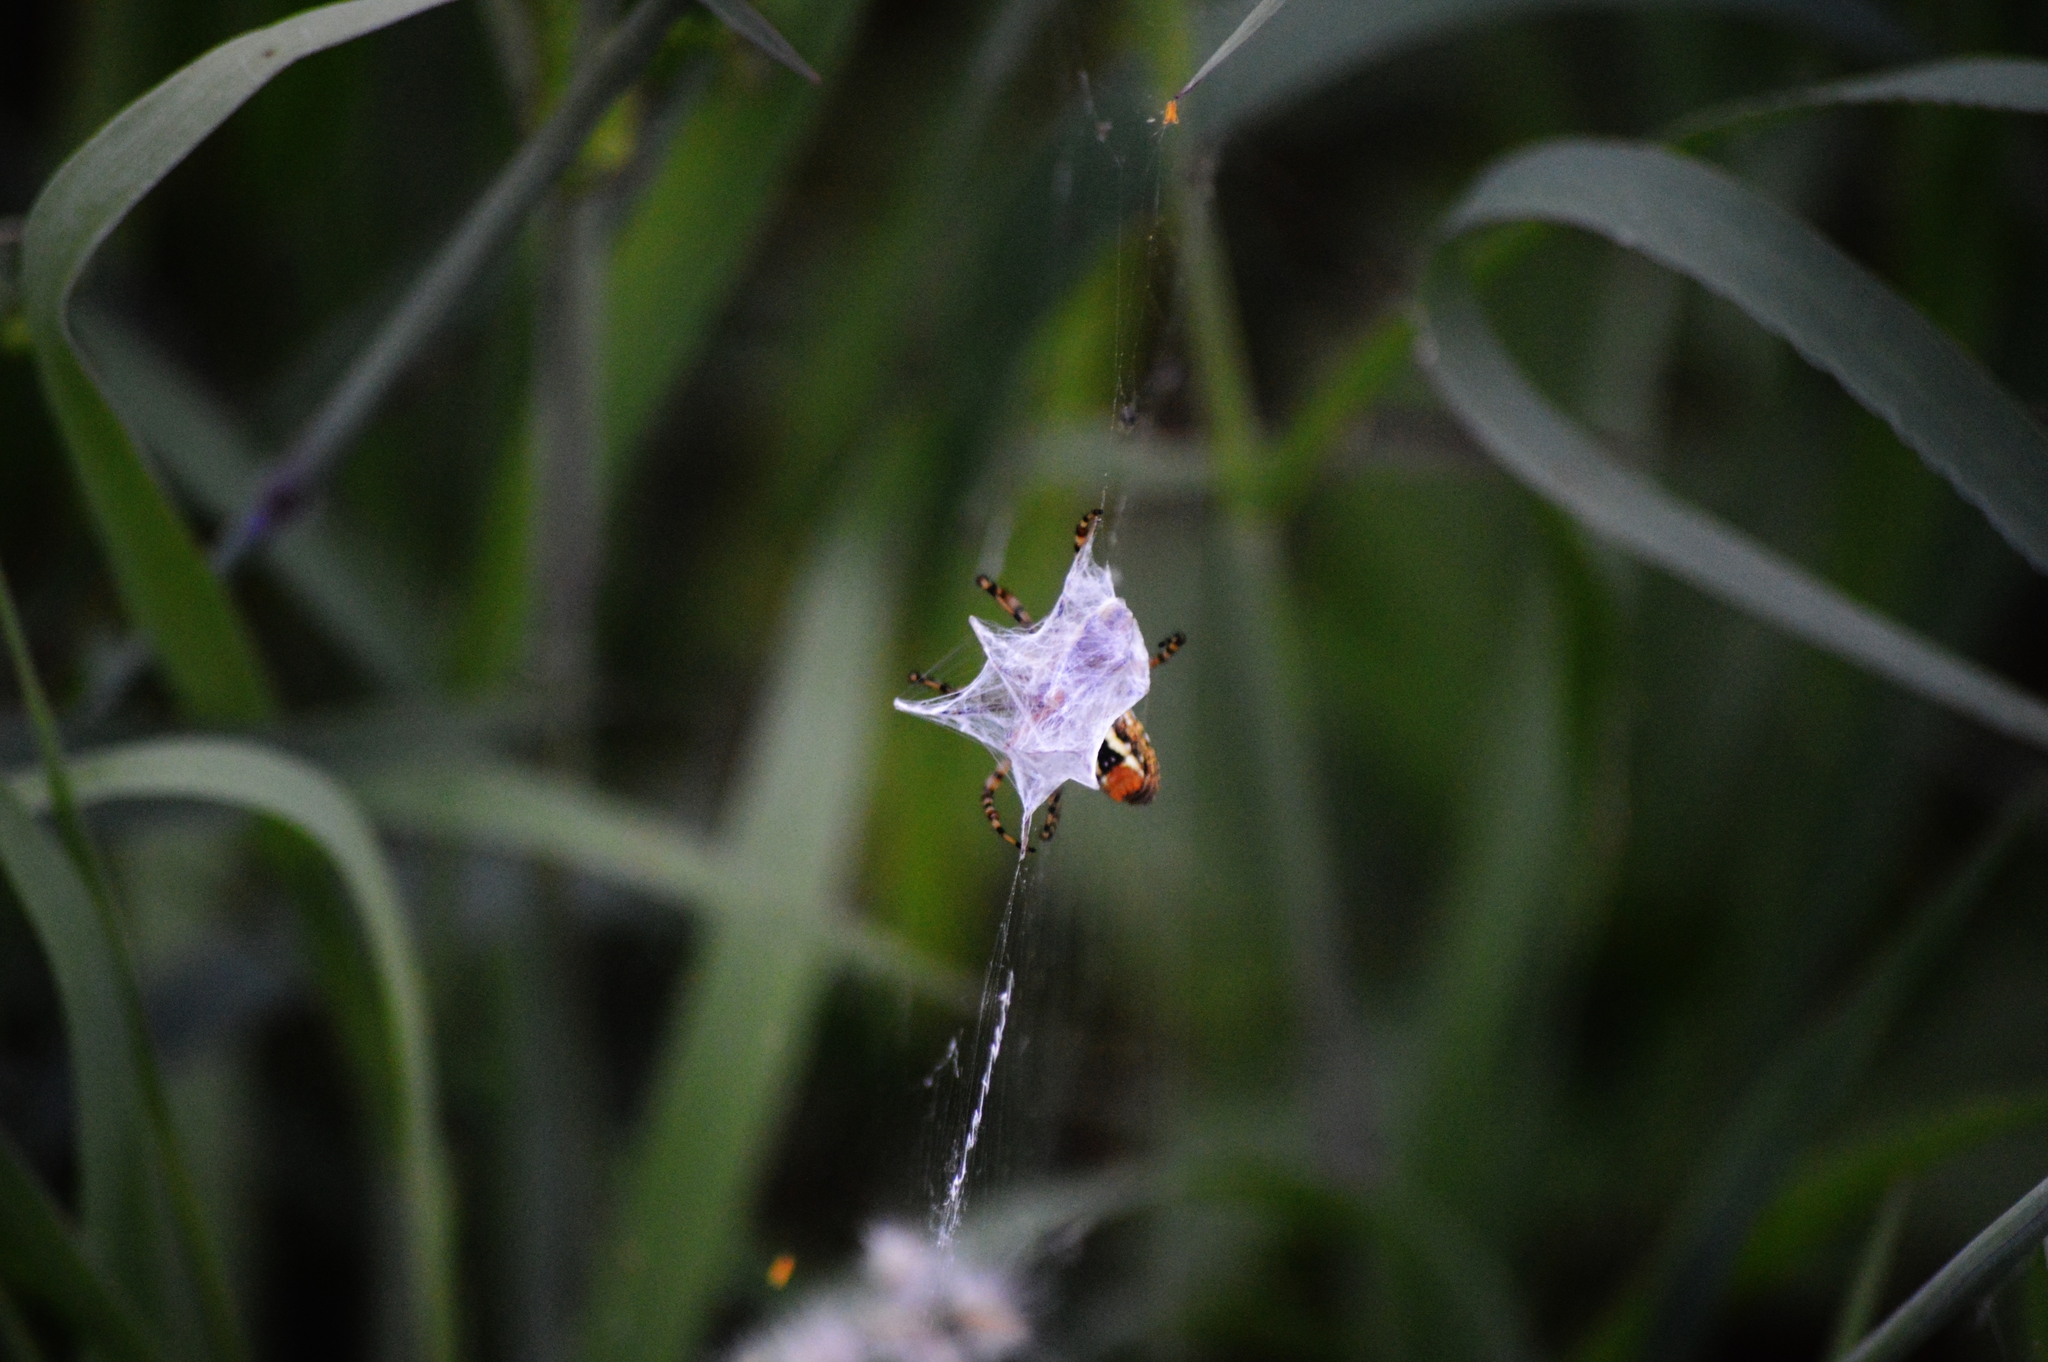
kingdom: Animalia
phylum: Arthropoda
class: Arachnida
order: Araneae
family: Araneidae
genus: Argiope
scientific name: Argiope trifasciata
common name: Banded garden spider
